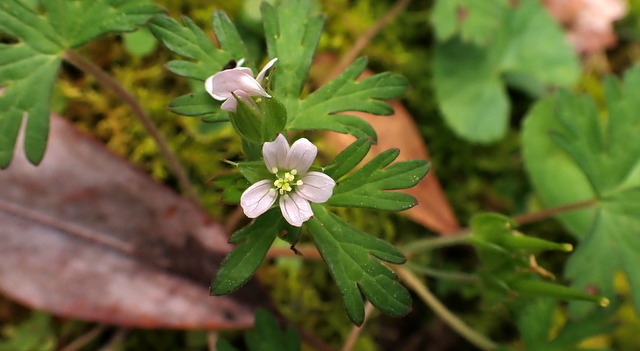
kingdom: Plantae
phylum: Tracheophyta
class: Magnoliopsida
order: Geraniales
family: Geraniaceae
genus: Geranium
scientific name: Geranium carolinianum
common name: Carolina crane's-bill
